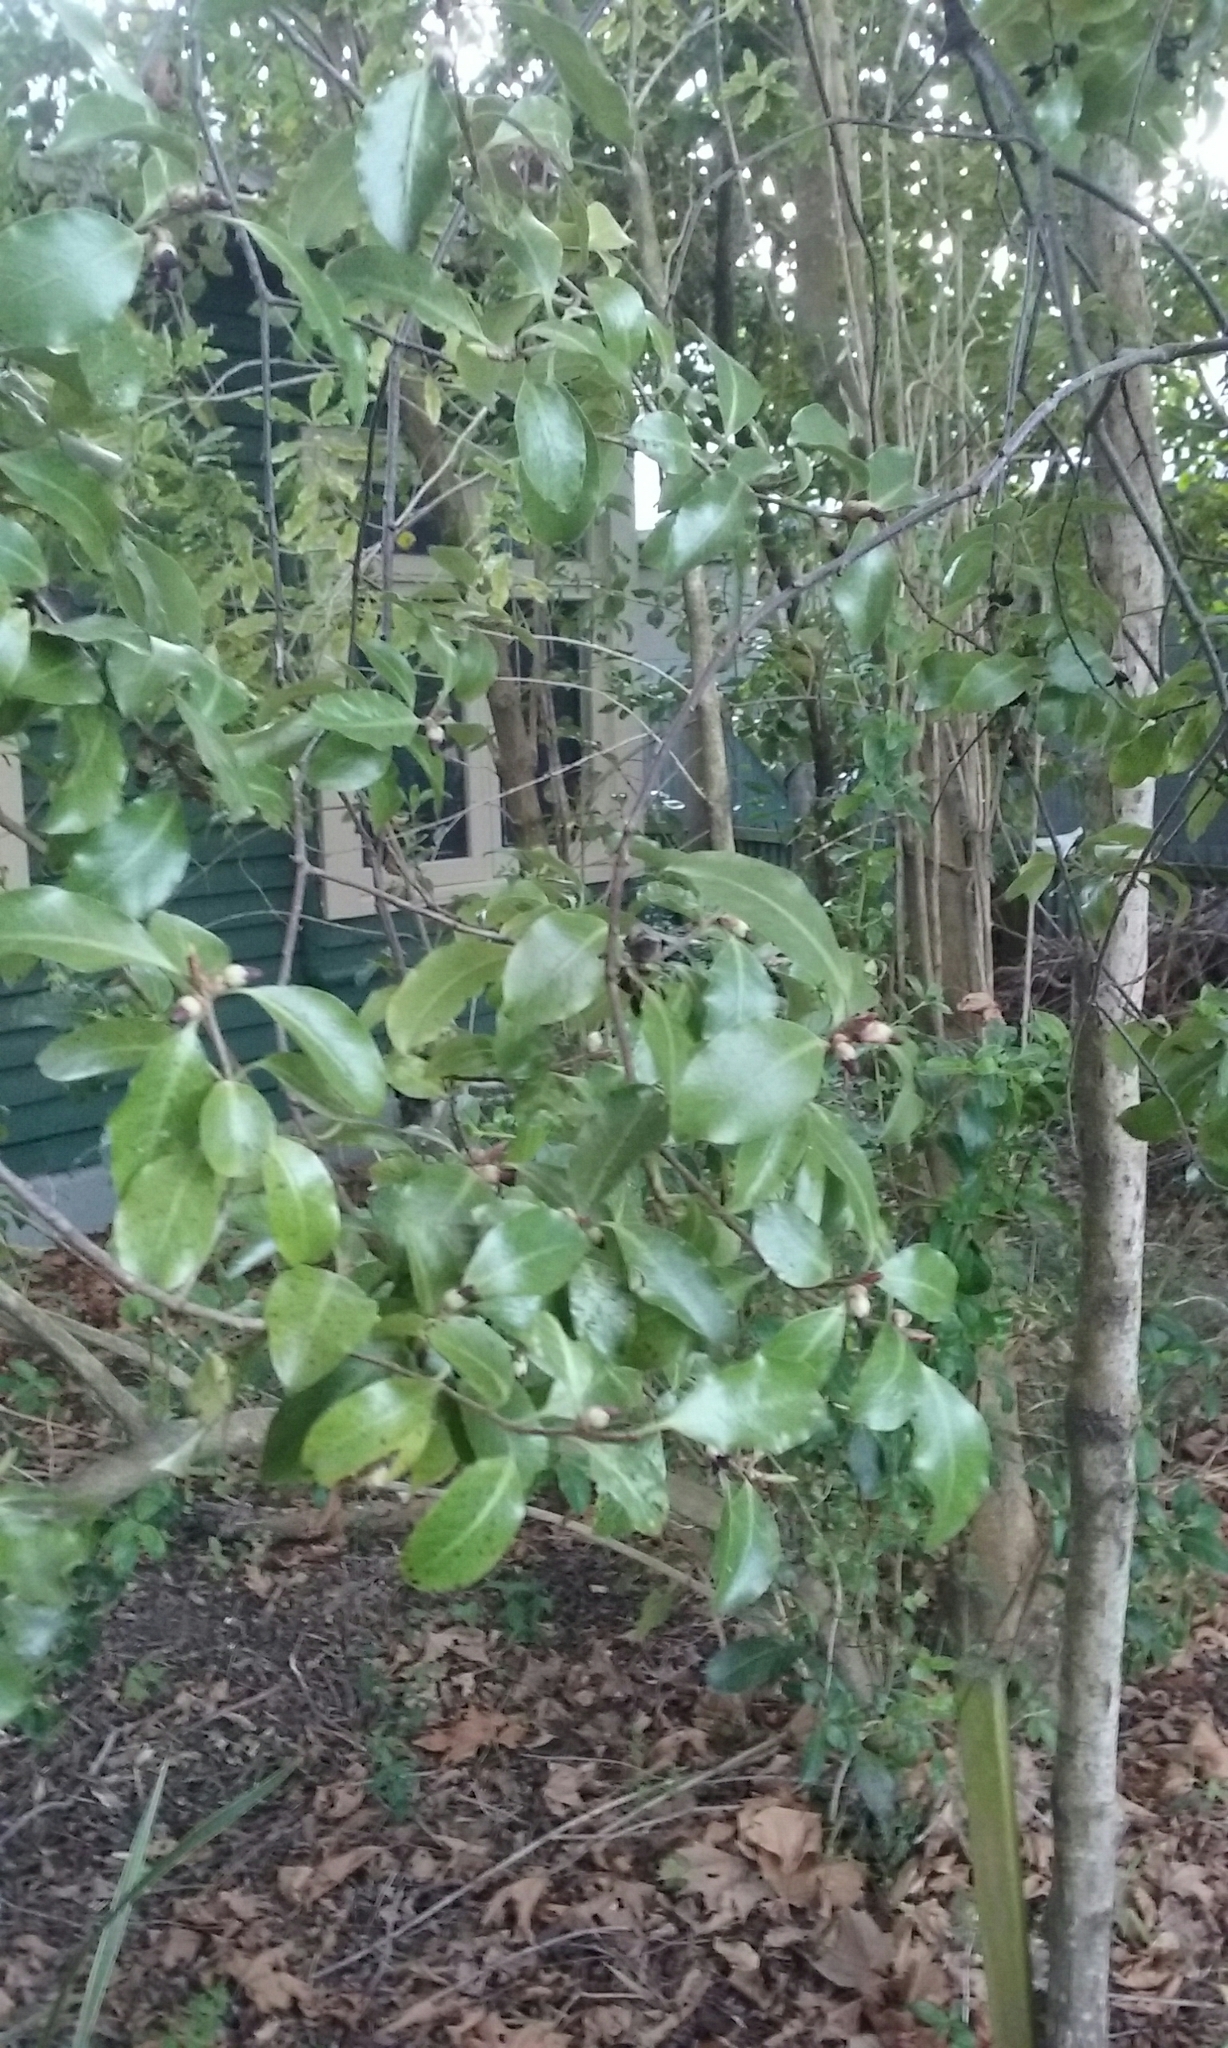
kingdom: Plantae
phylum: Tracheophyta
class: Magnoliopsida
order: Apiales
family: Pittosporaceae
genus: Pittosporum
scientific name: Pittosporum tenuifolium
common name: Kohuhu
